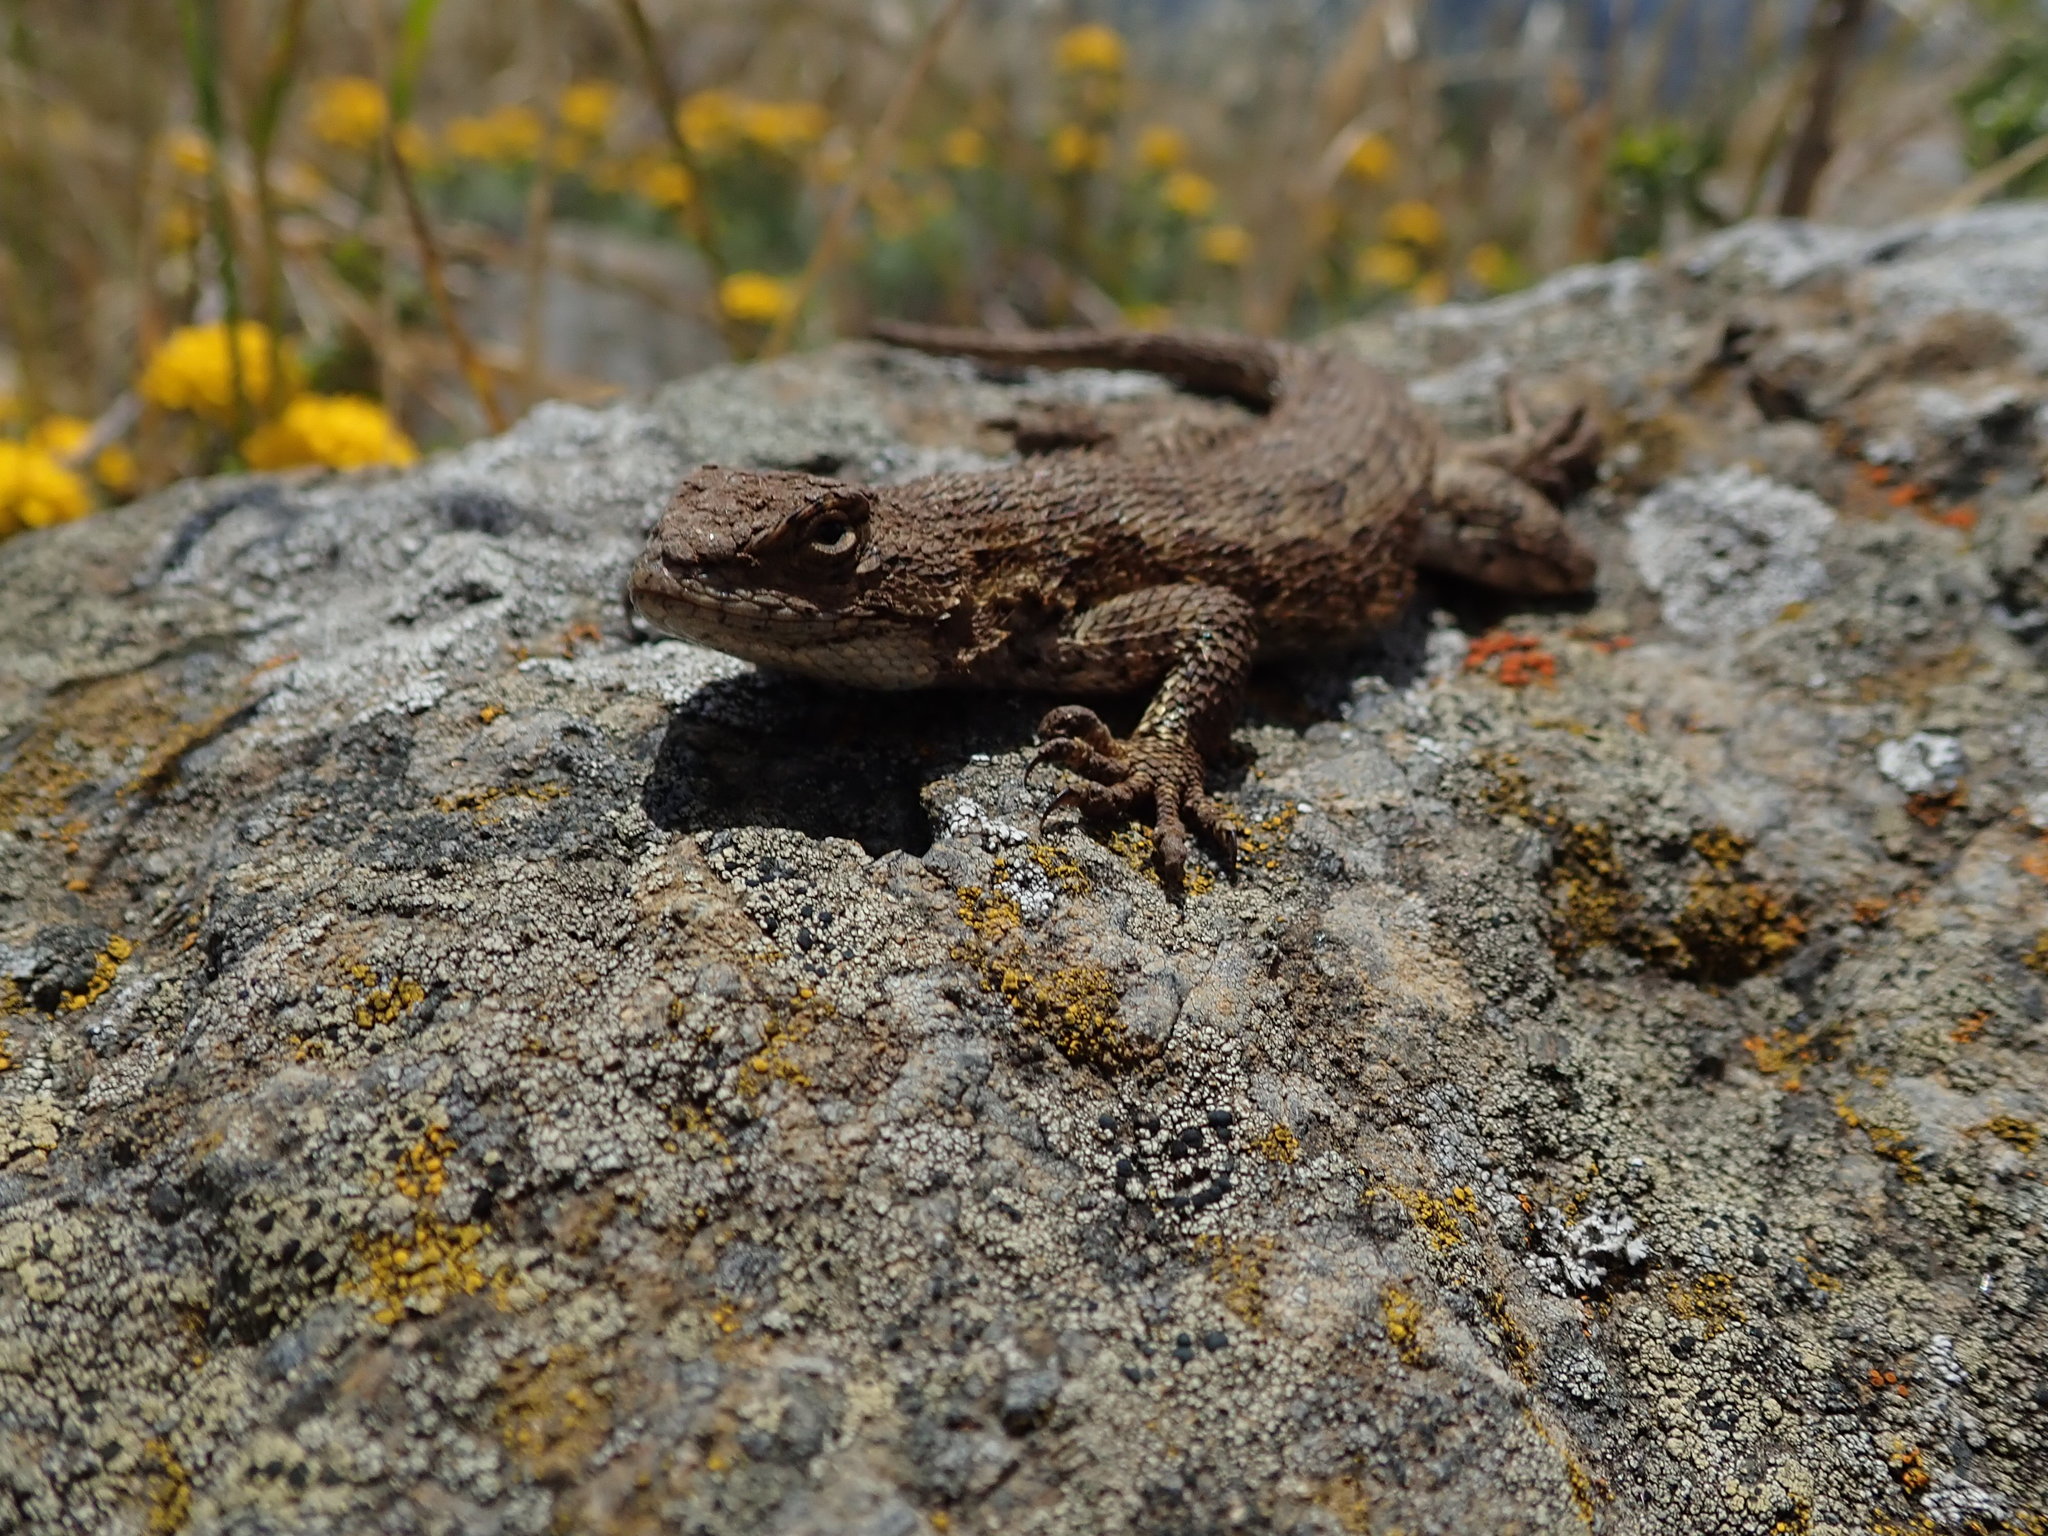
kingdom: Animalia
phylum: Chordata
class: Squamata
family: Phrynosomatidae
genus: Sceloporus
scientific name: Sceloporus occidentalis
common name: Western fence lizard
